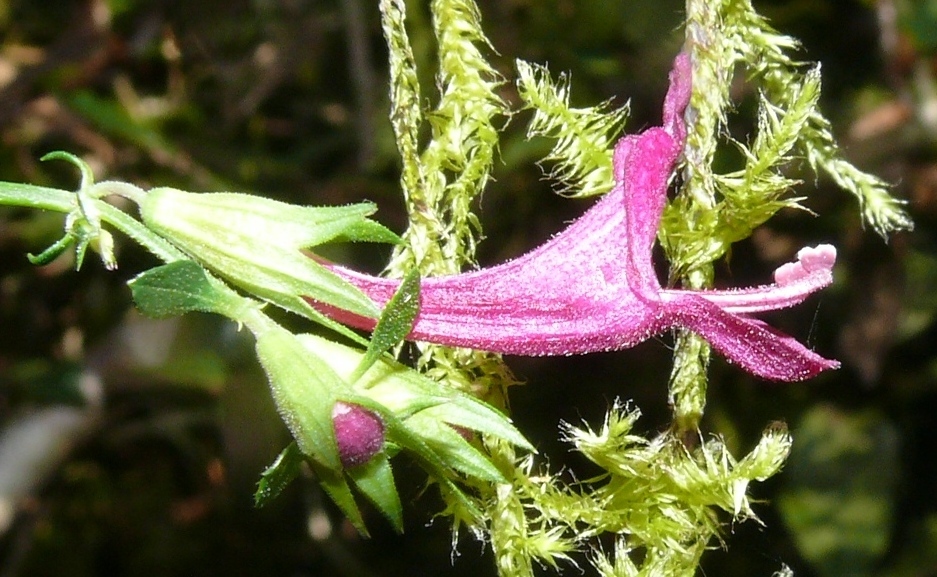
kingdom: Plantae
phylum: Tracheophyta
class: Magnoliopsida
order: Lamiales
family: Lamiaceae
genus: Stachys
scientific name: Stachys thunbergii
